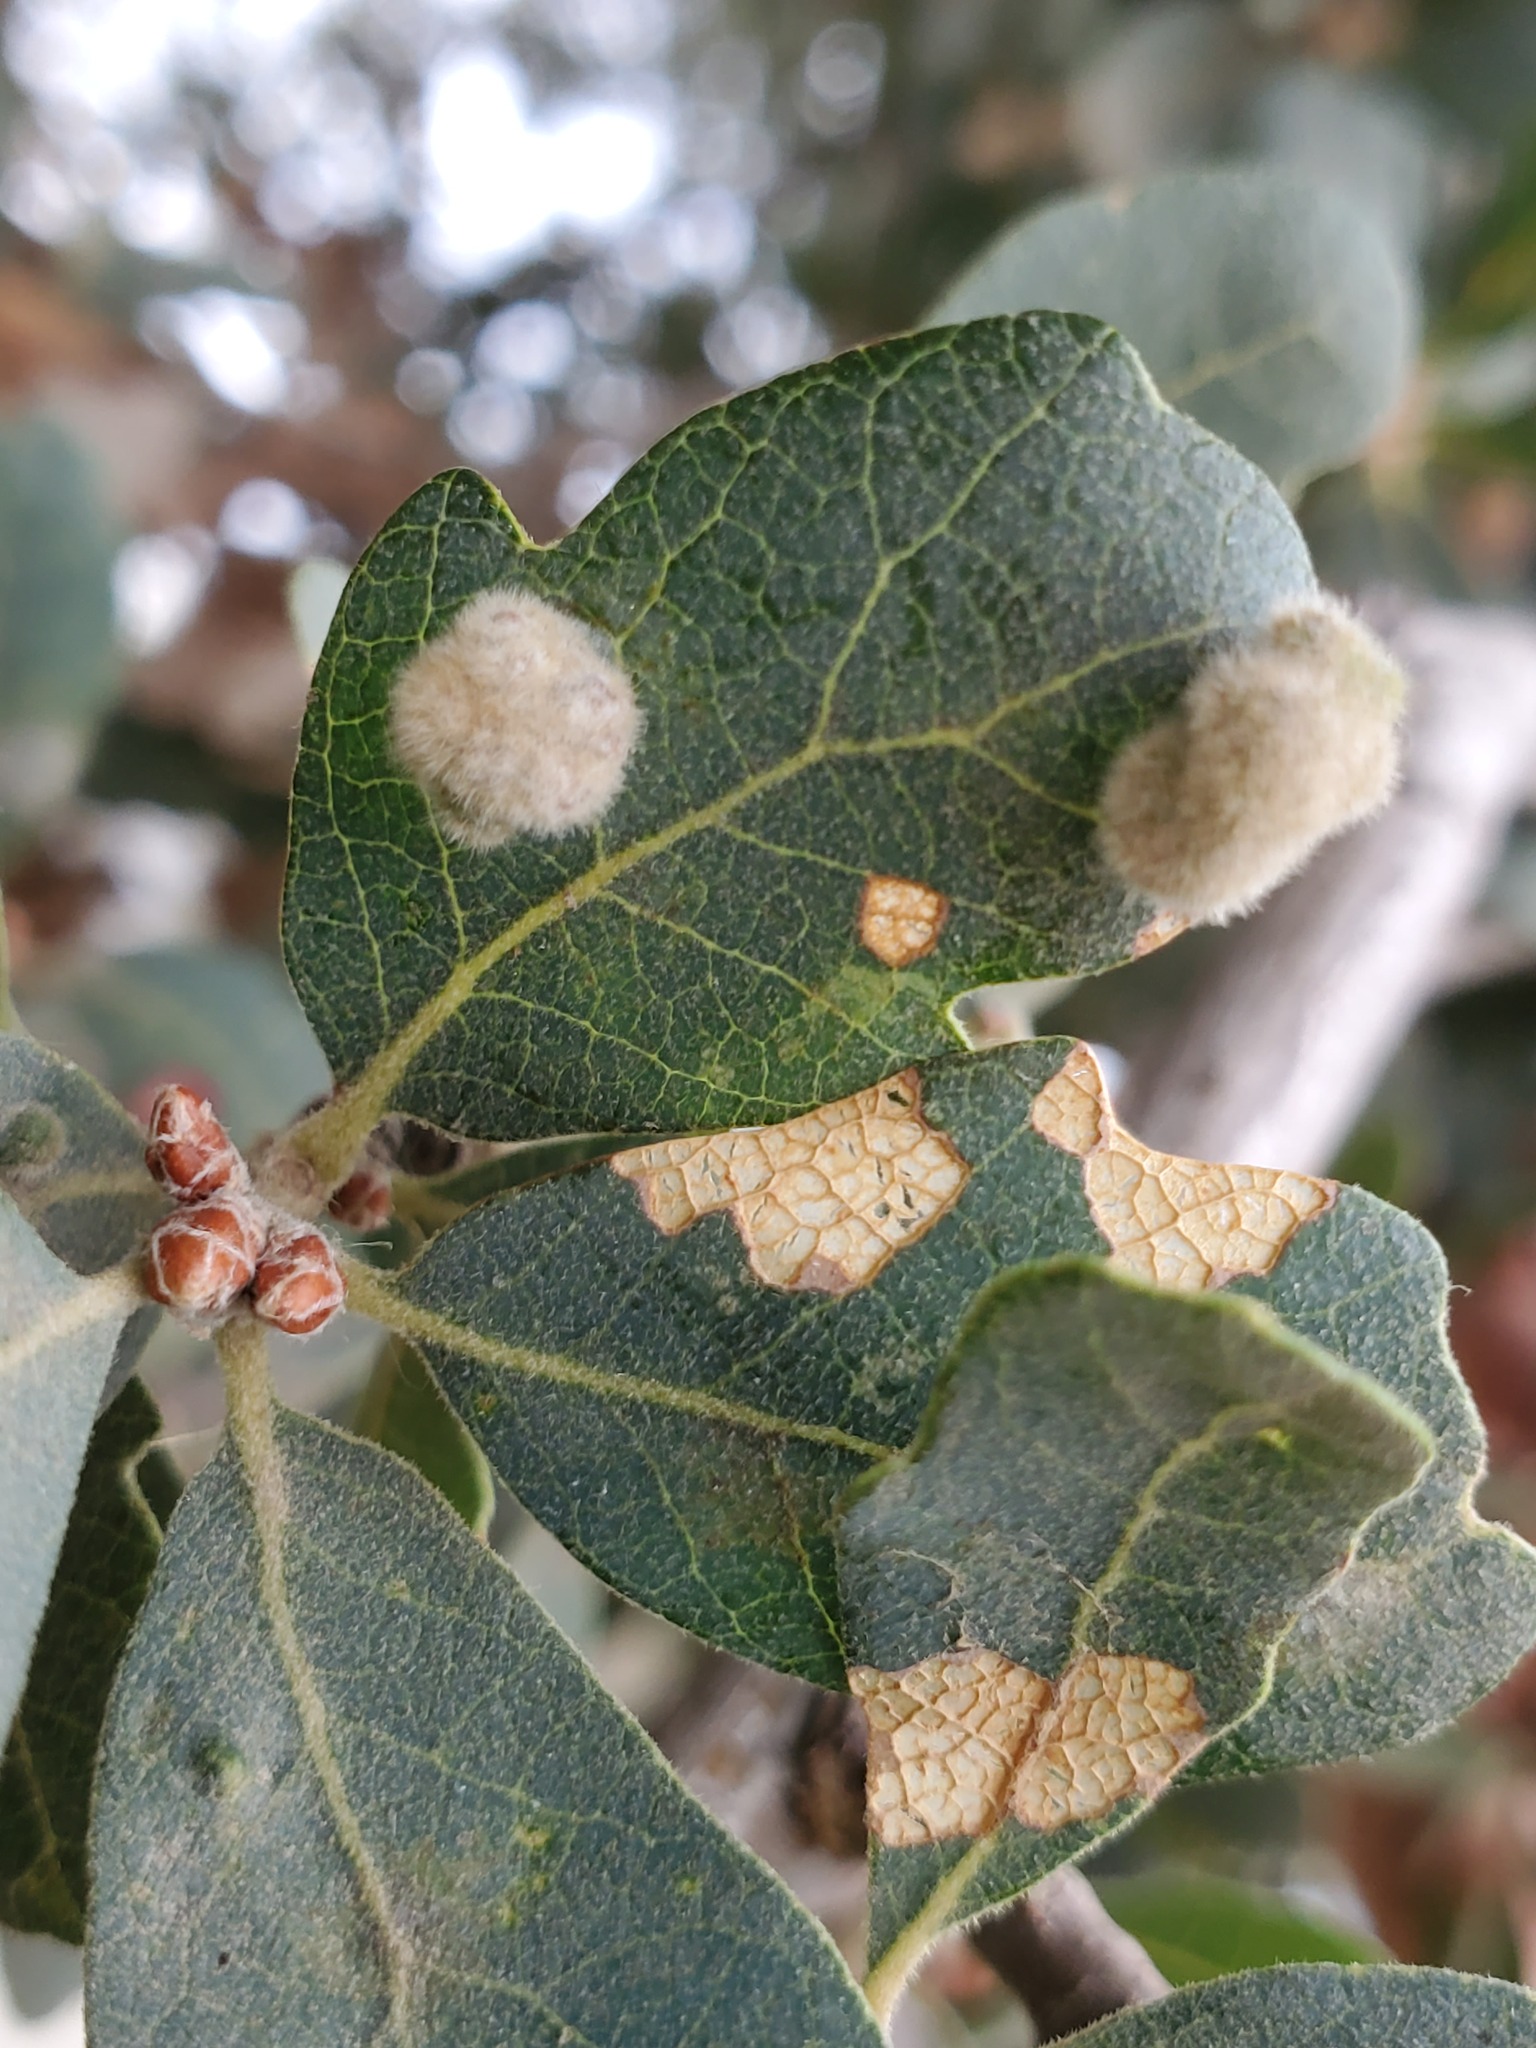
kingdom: Animalia
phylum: Arthropoda
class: Arachnida
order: Trombidiformes
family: Eriophyidae
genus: Aceria
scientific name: Aceria
